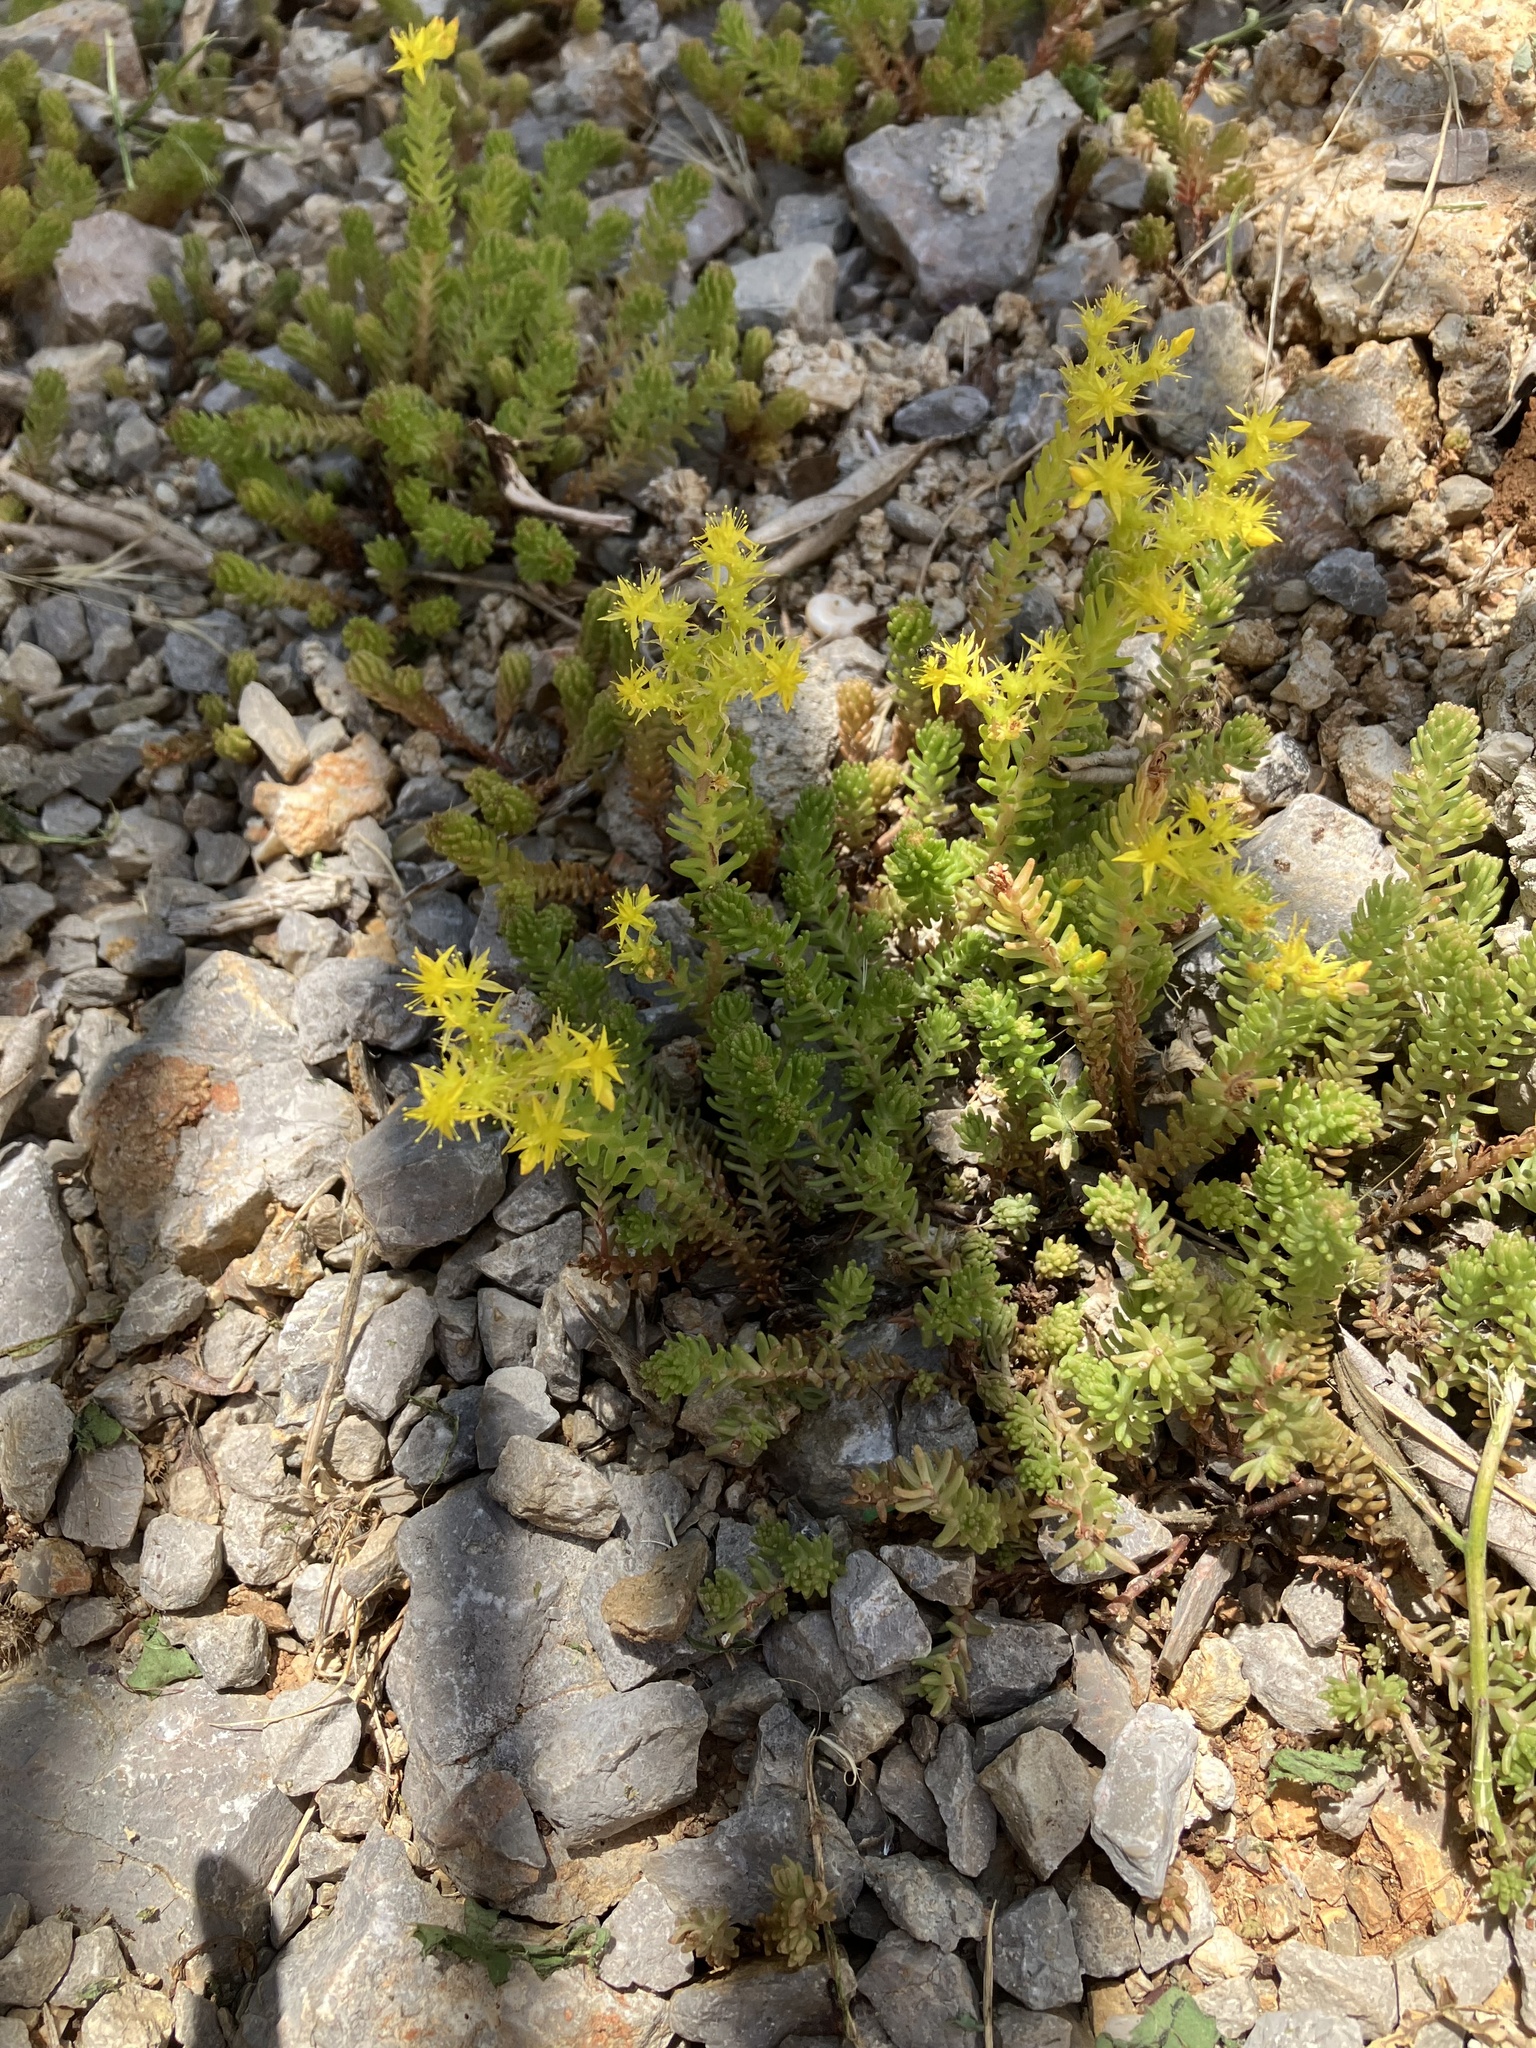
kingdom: Plantae
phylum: Tracheophyta
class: Magnoliopsida
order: Saxifragales
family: Crassulaceae
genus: Sedum
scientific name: Sedum sexangulare
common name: Tasteless stonecrop
